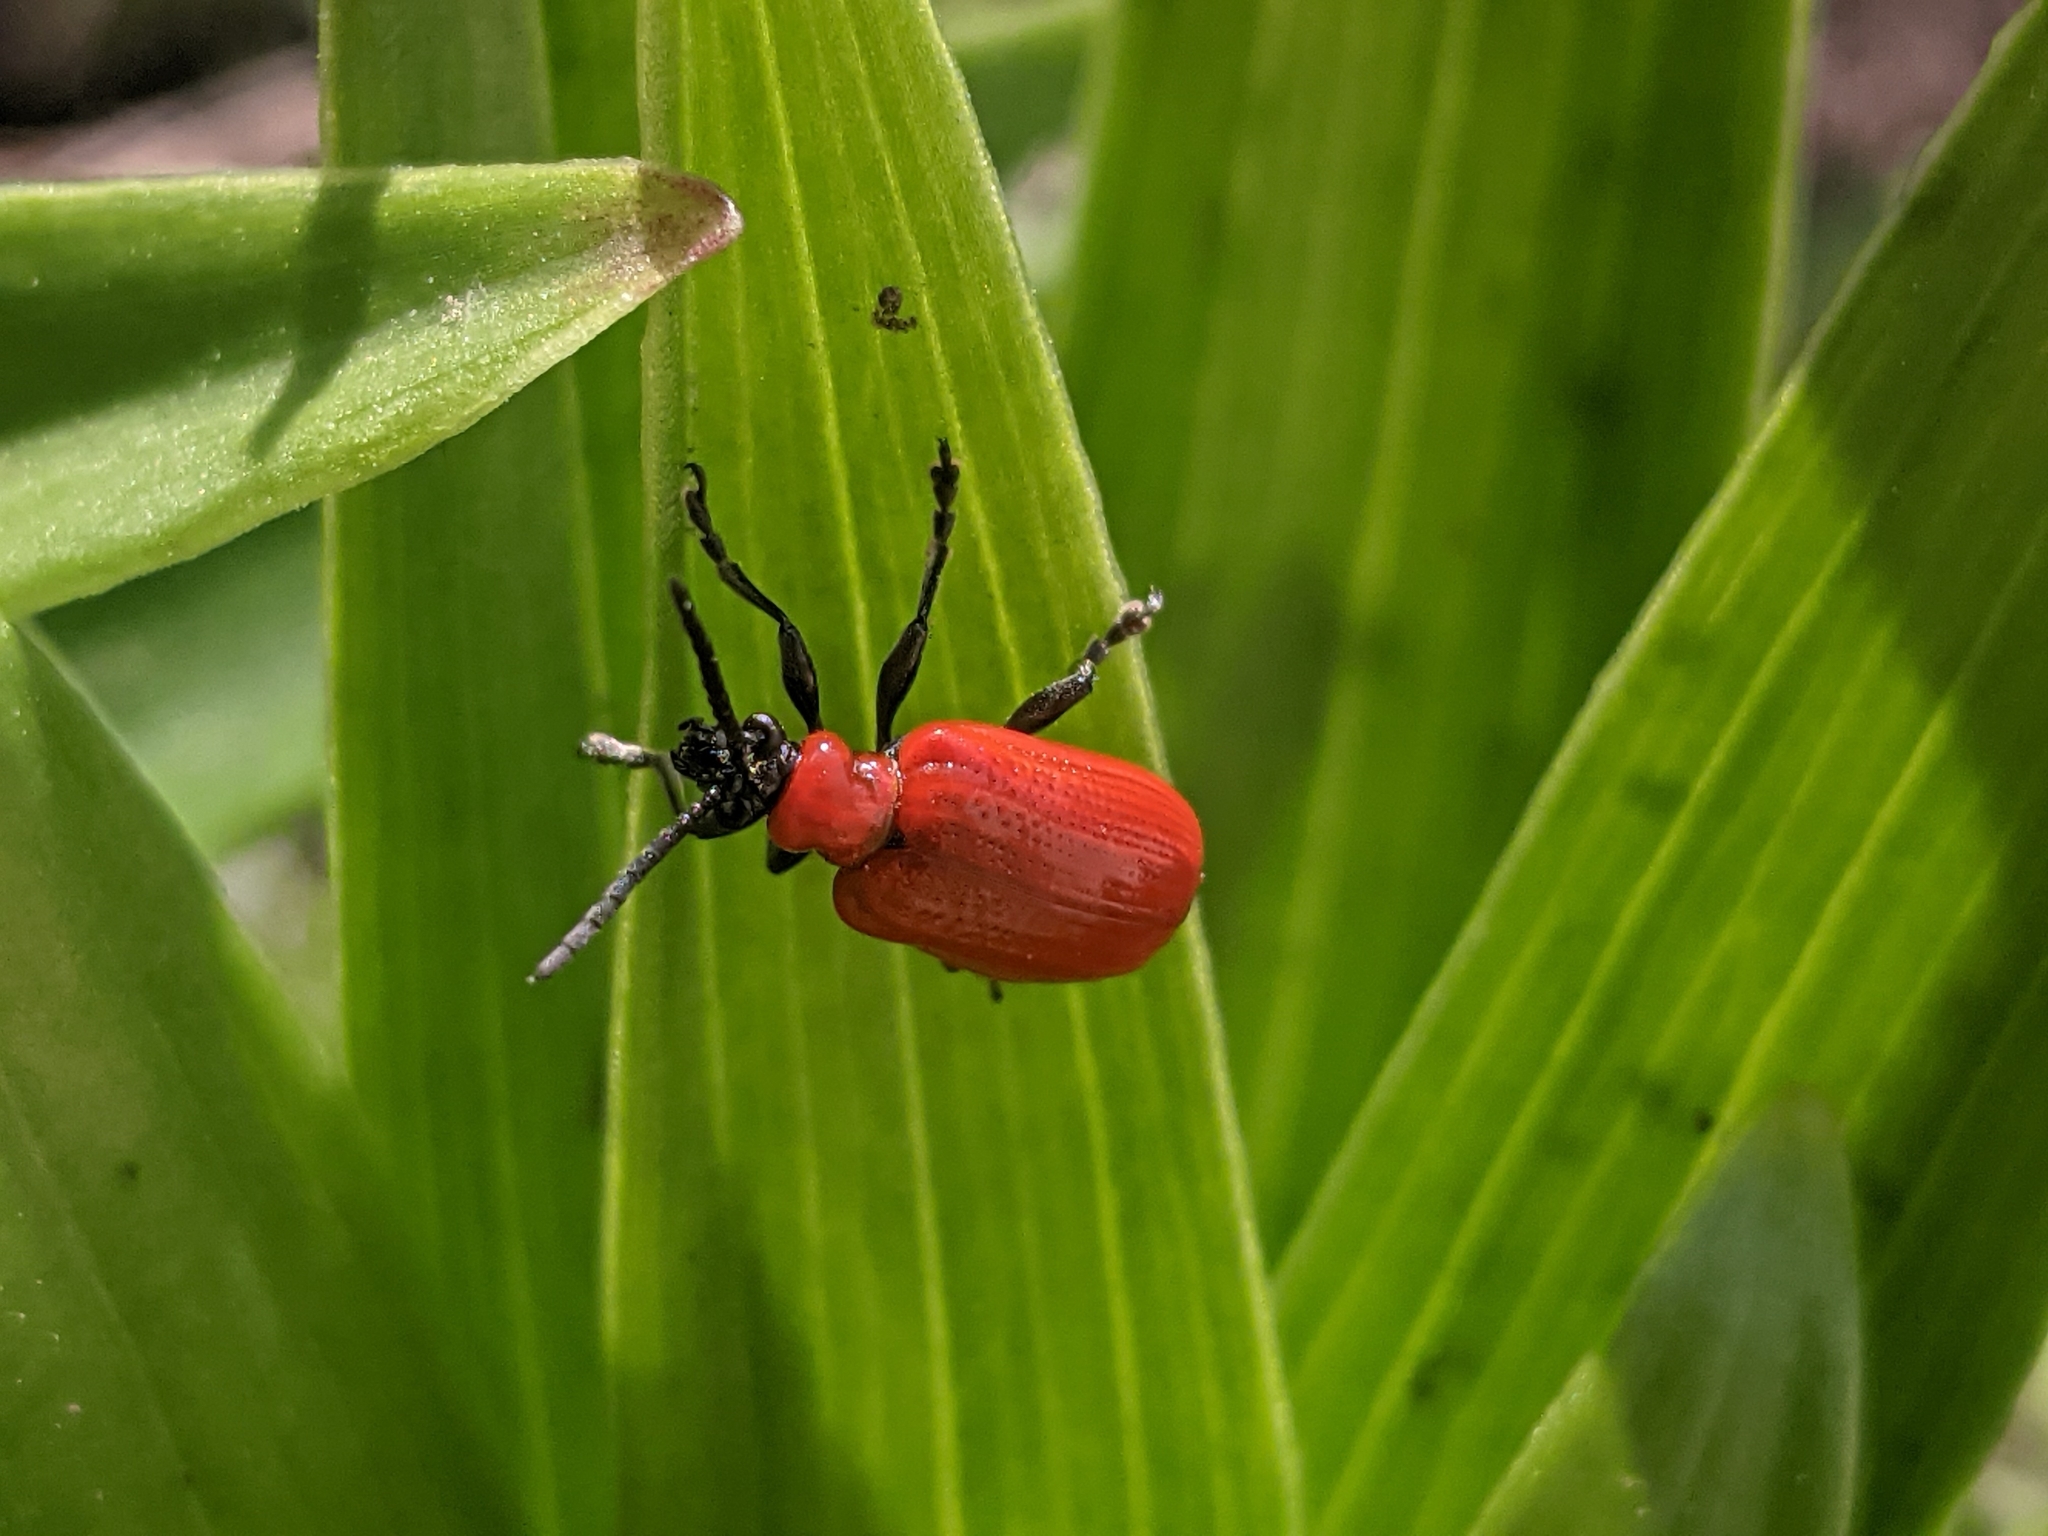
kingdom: Animalia
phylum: Arthropoda
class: Insecta
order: Coleoptera
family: Chrysomelidae
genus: Lilioceris
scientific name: Lilioceris lilii
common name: Lily beetle
